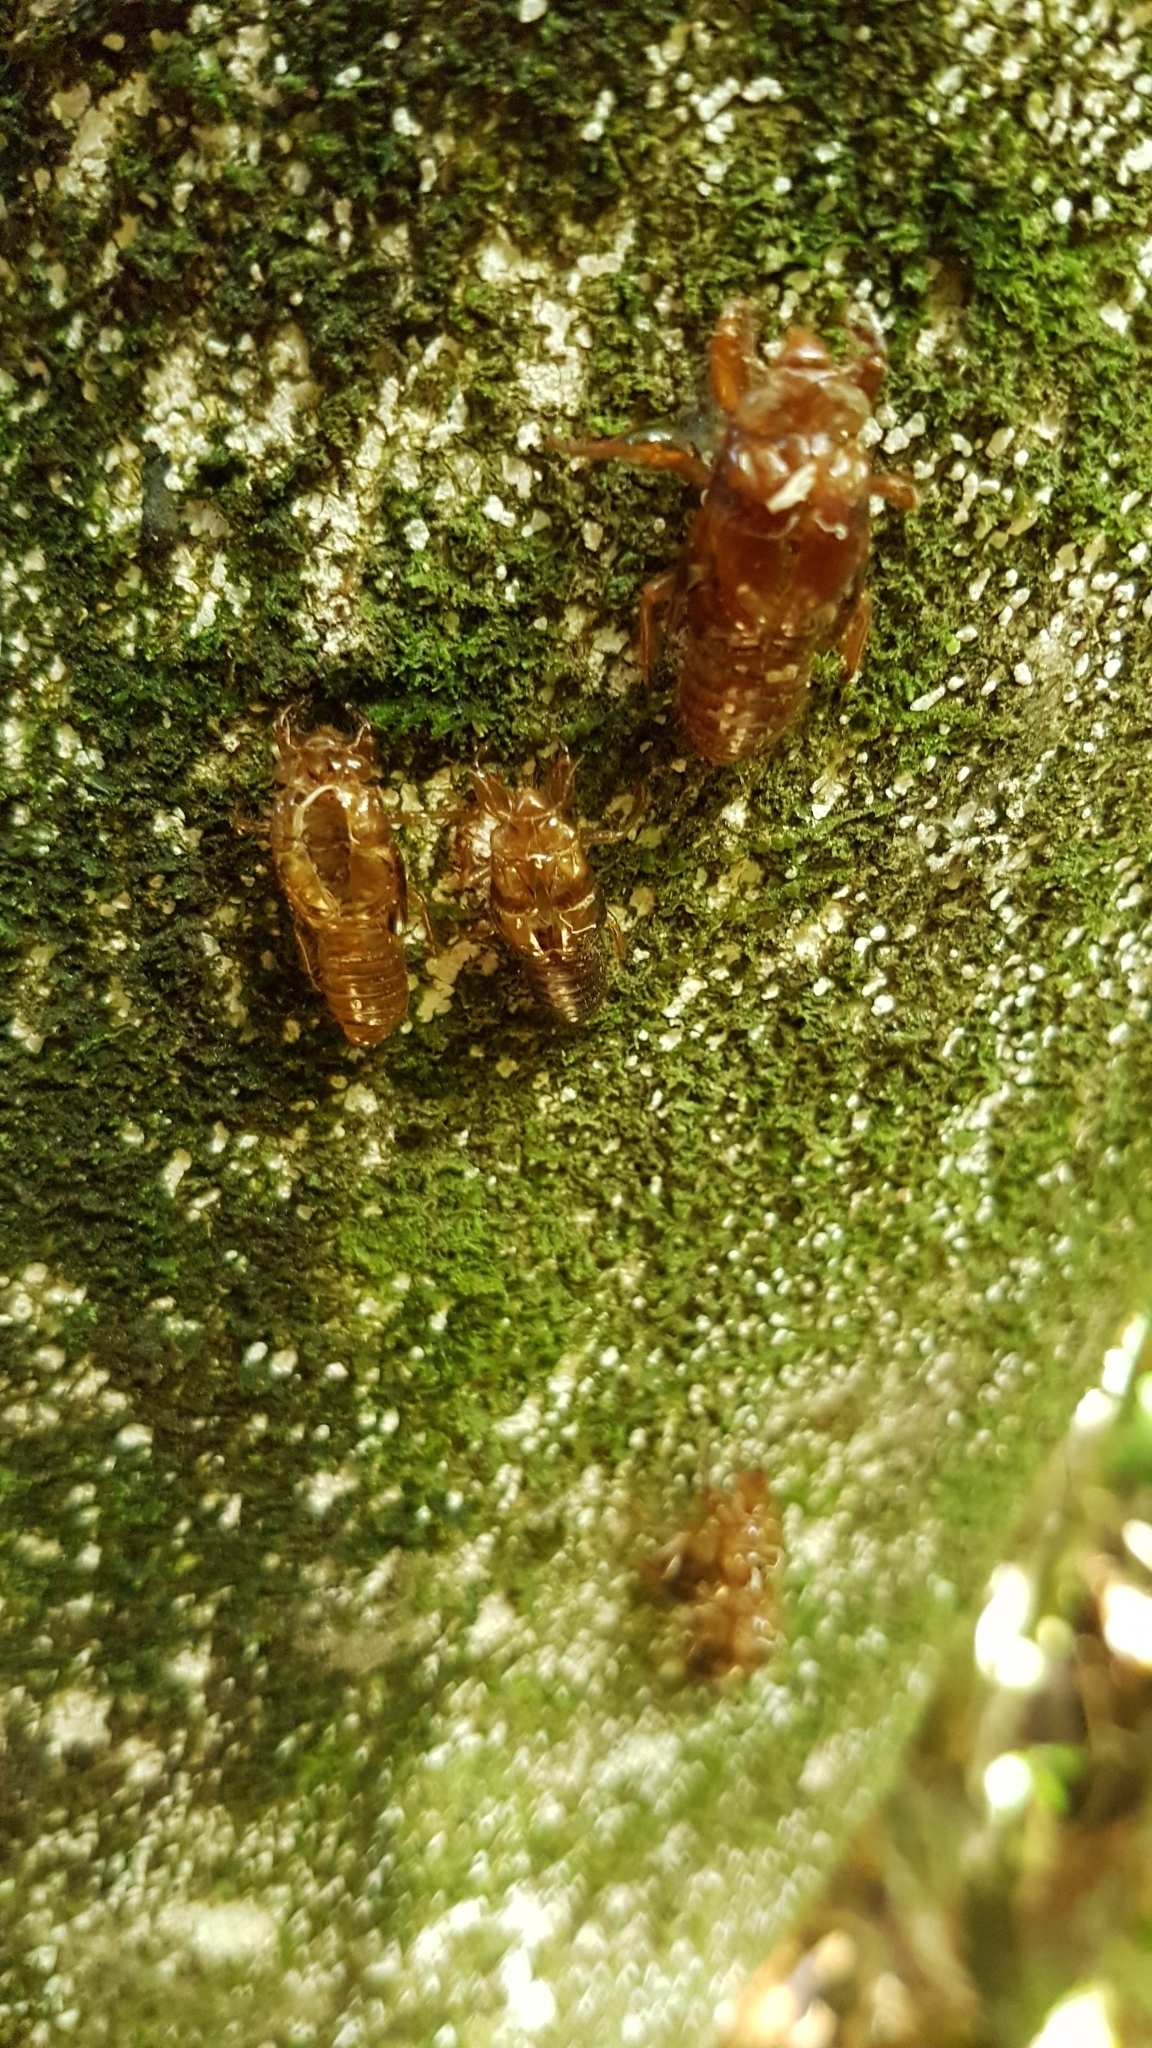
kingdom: Animalia
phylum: Arthropoda
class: Insecta
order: Hemiptera
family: Cicadidae
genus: Amphipsalta
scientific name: Amphipsalta zelandica
